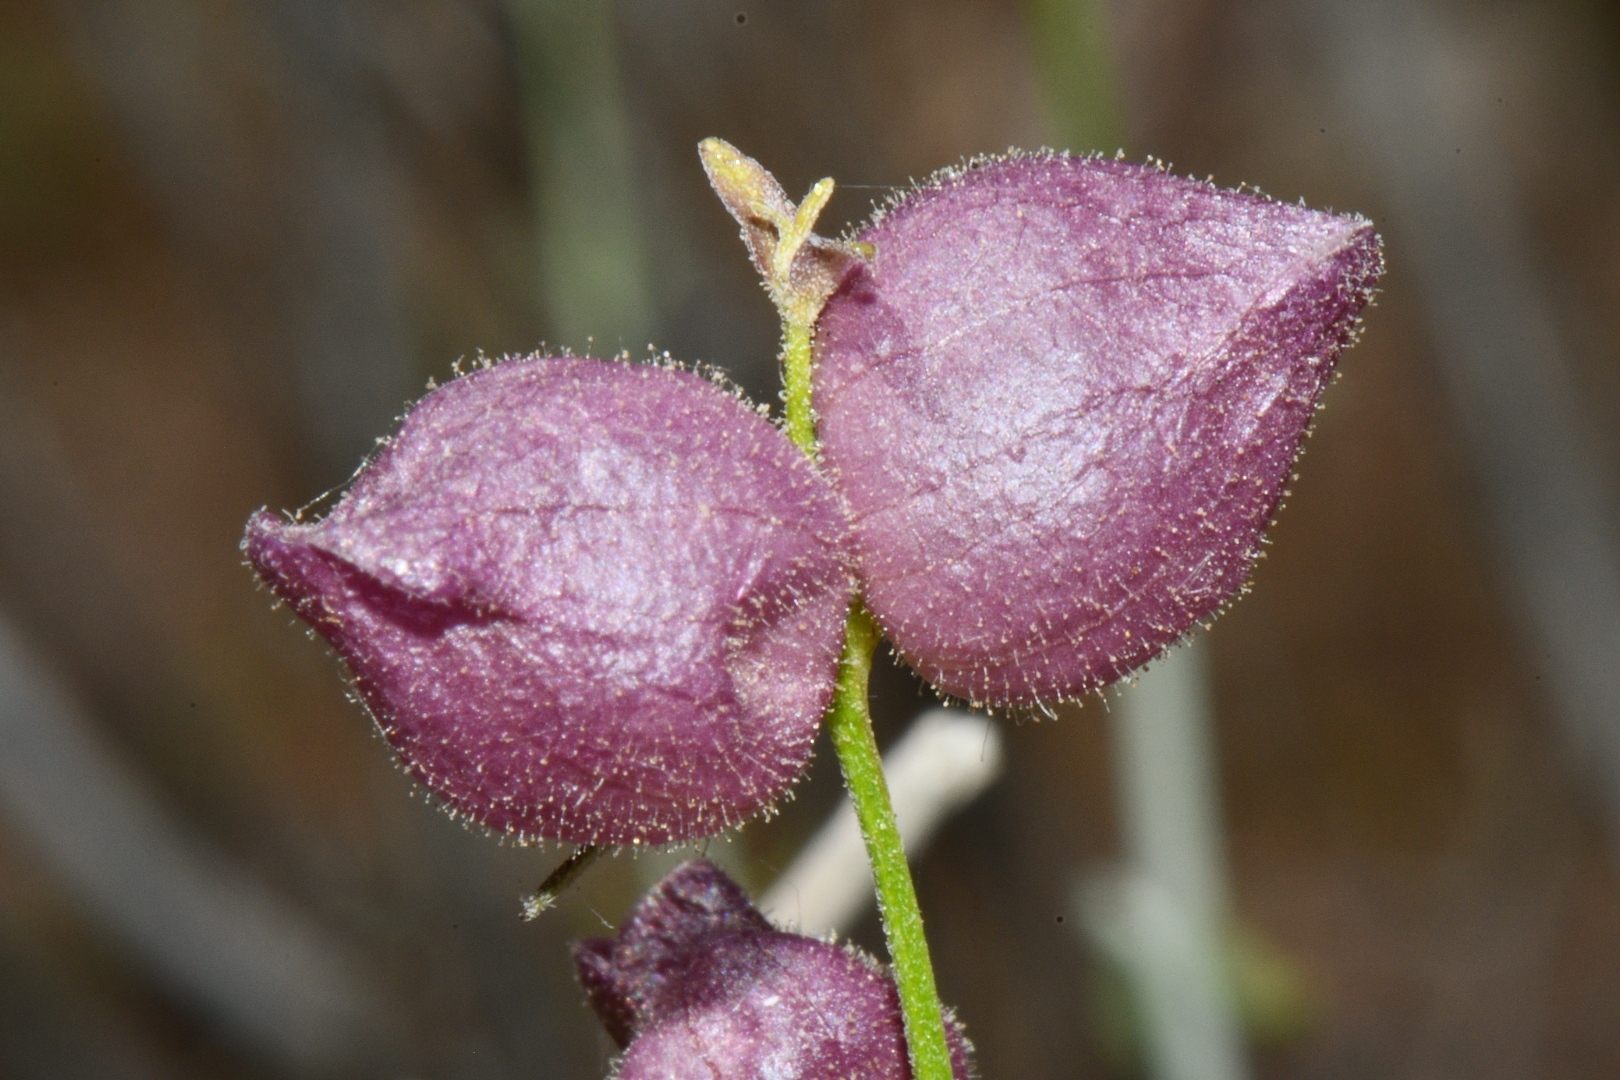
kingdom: Plantae
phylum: Tracheophyta
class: Magnoliopsida
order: Lamiales
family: Lamiaceae
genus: Scutellaria
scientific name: Scutellaria mexicana
